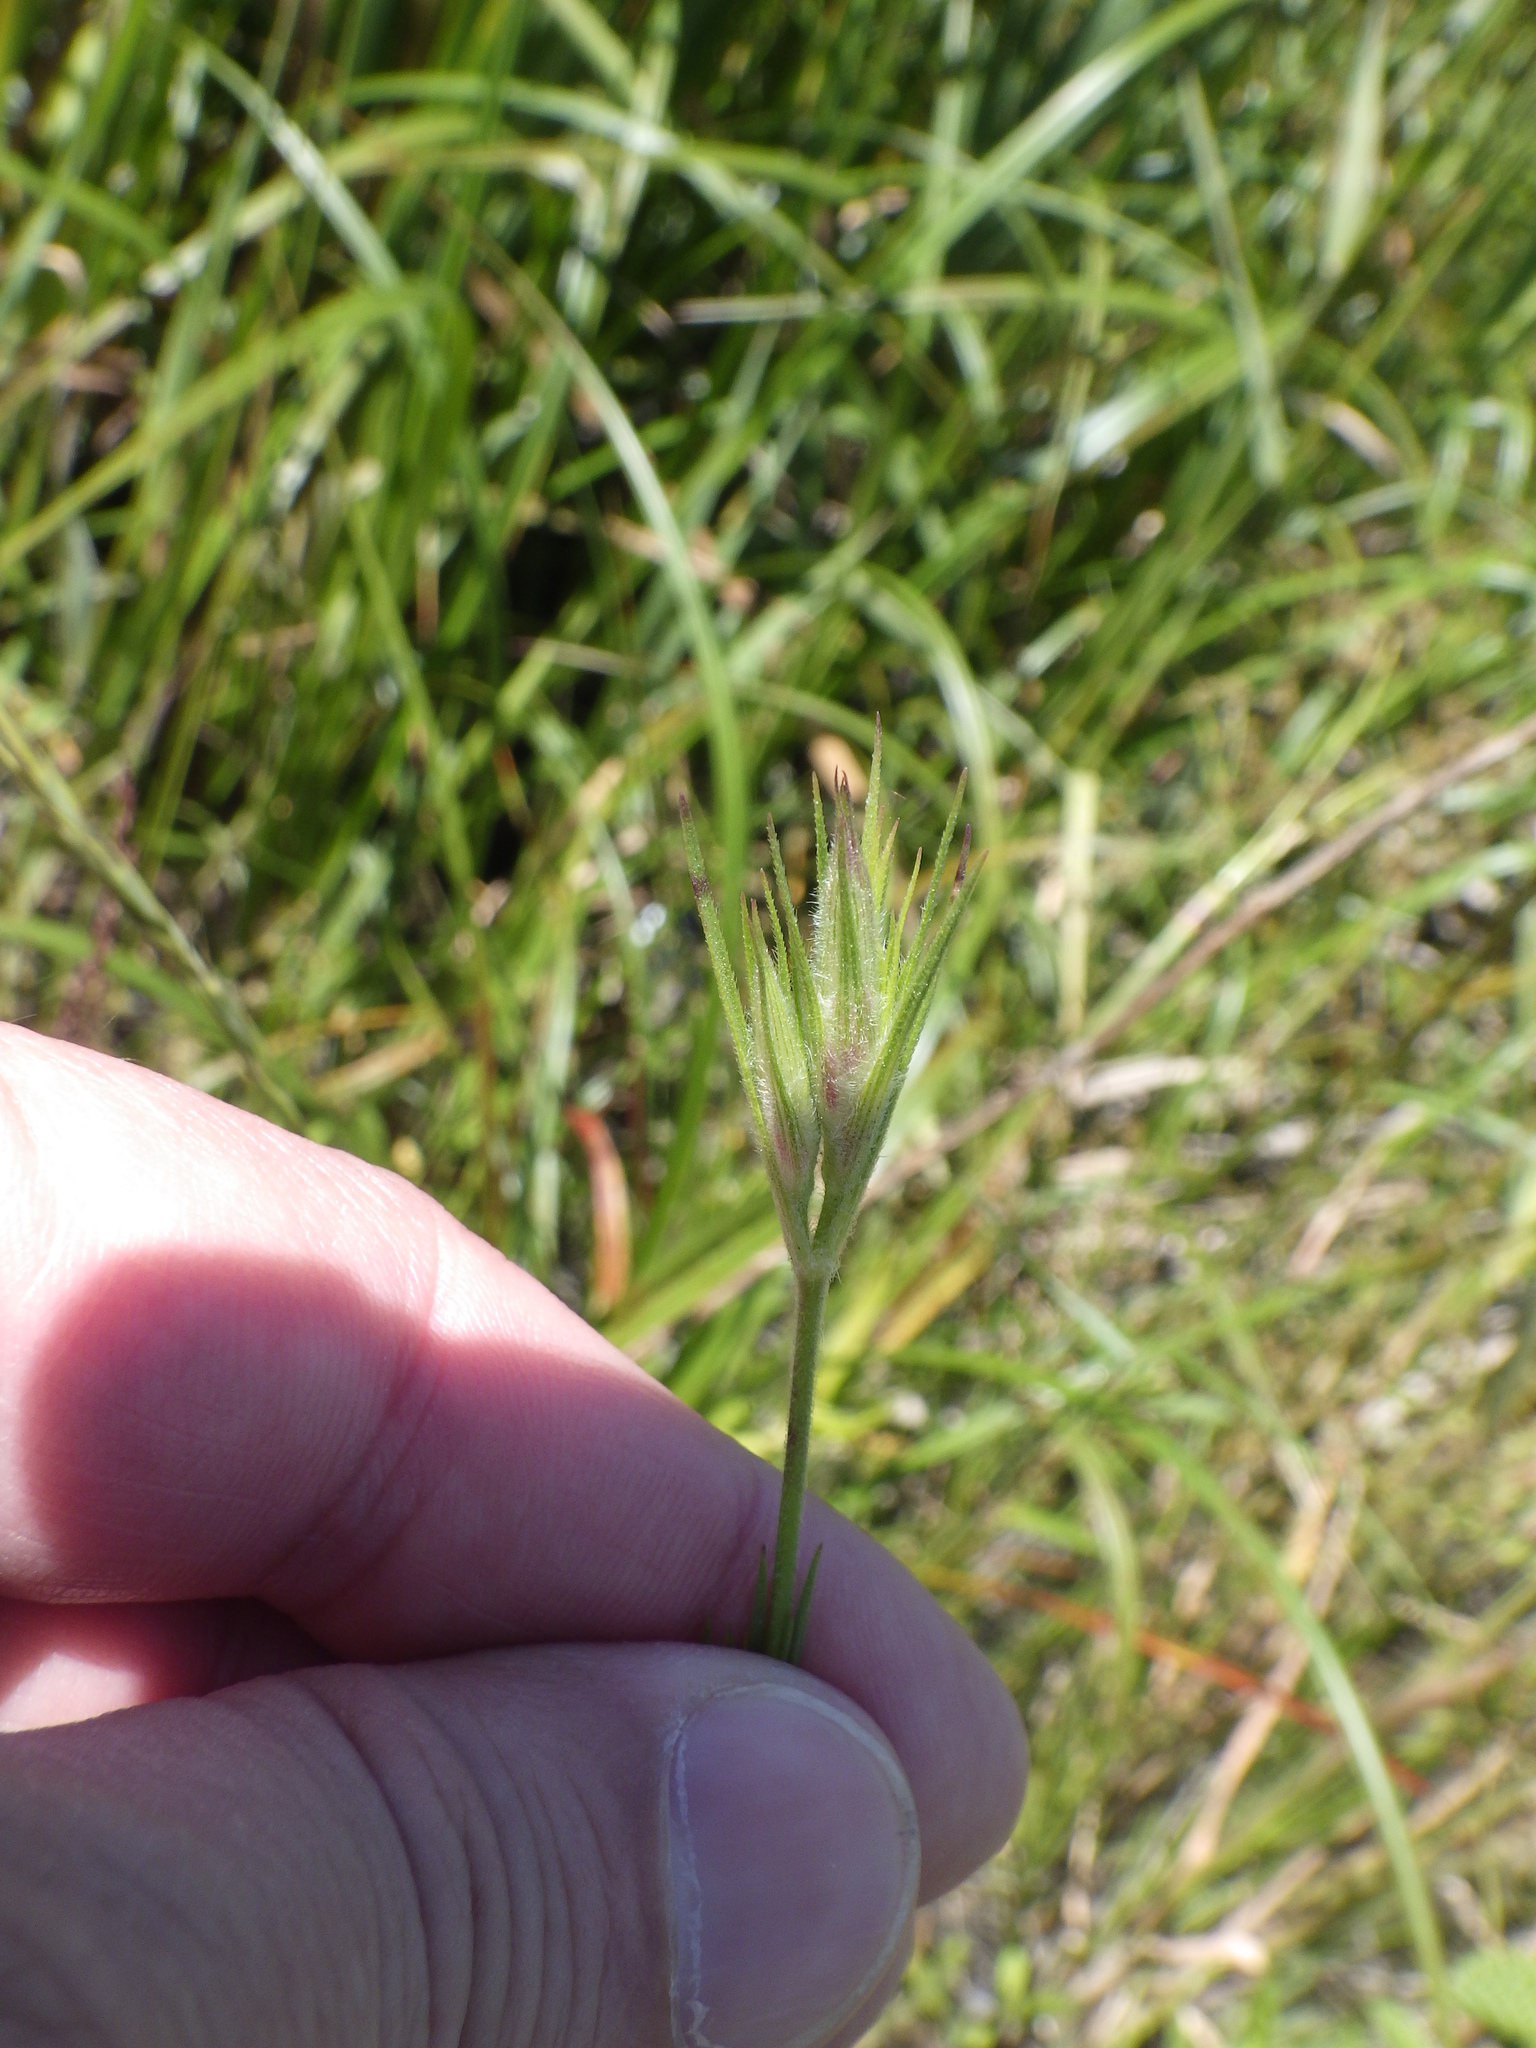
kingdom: Plantae
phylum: Tracheophyta
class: Magnoliopsida
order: Caryophyllales
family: Caryophyllaceae
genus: Dianthus
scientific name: Dianthus armeria
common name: Deptford pink
